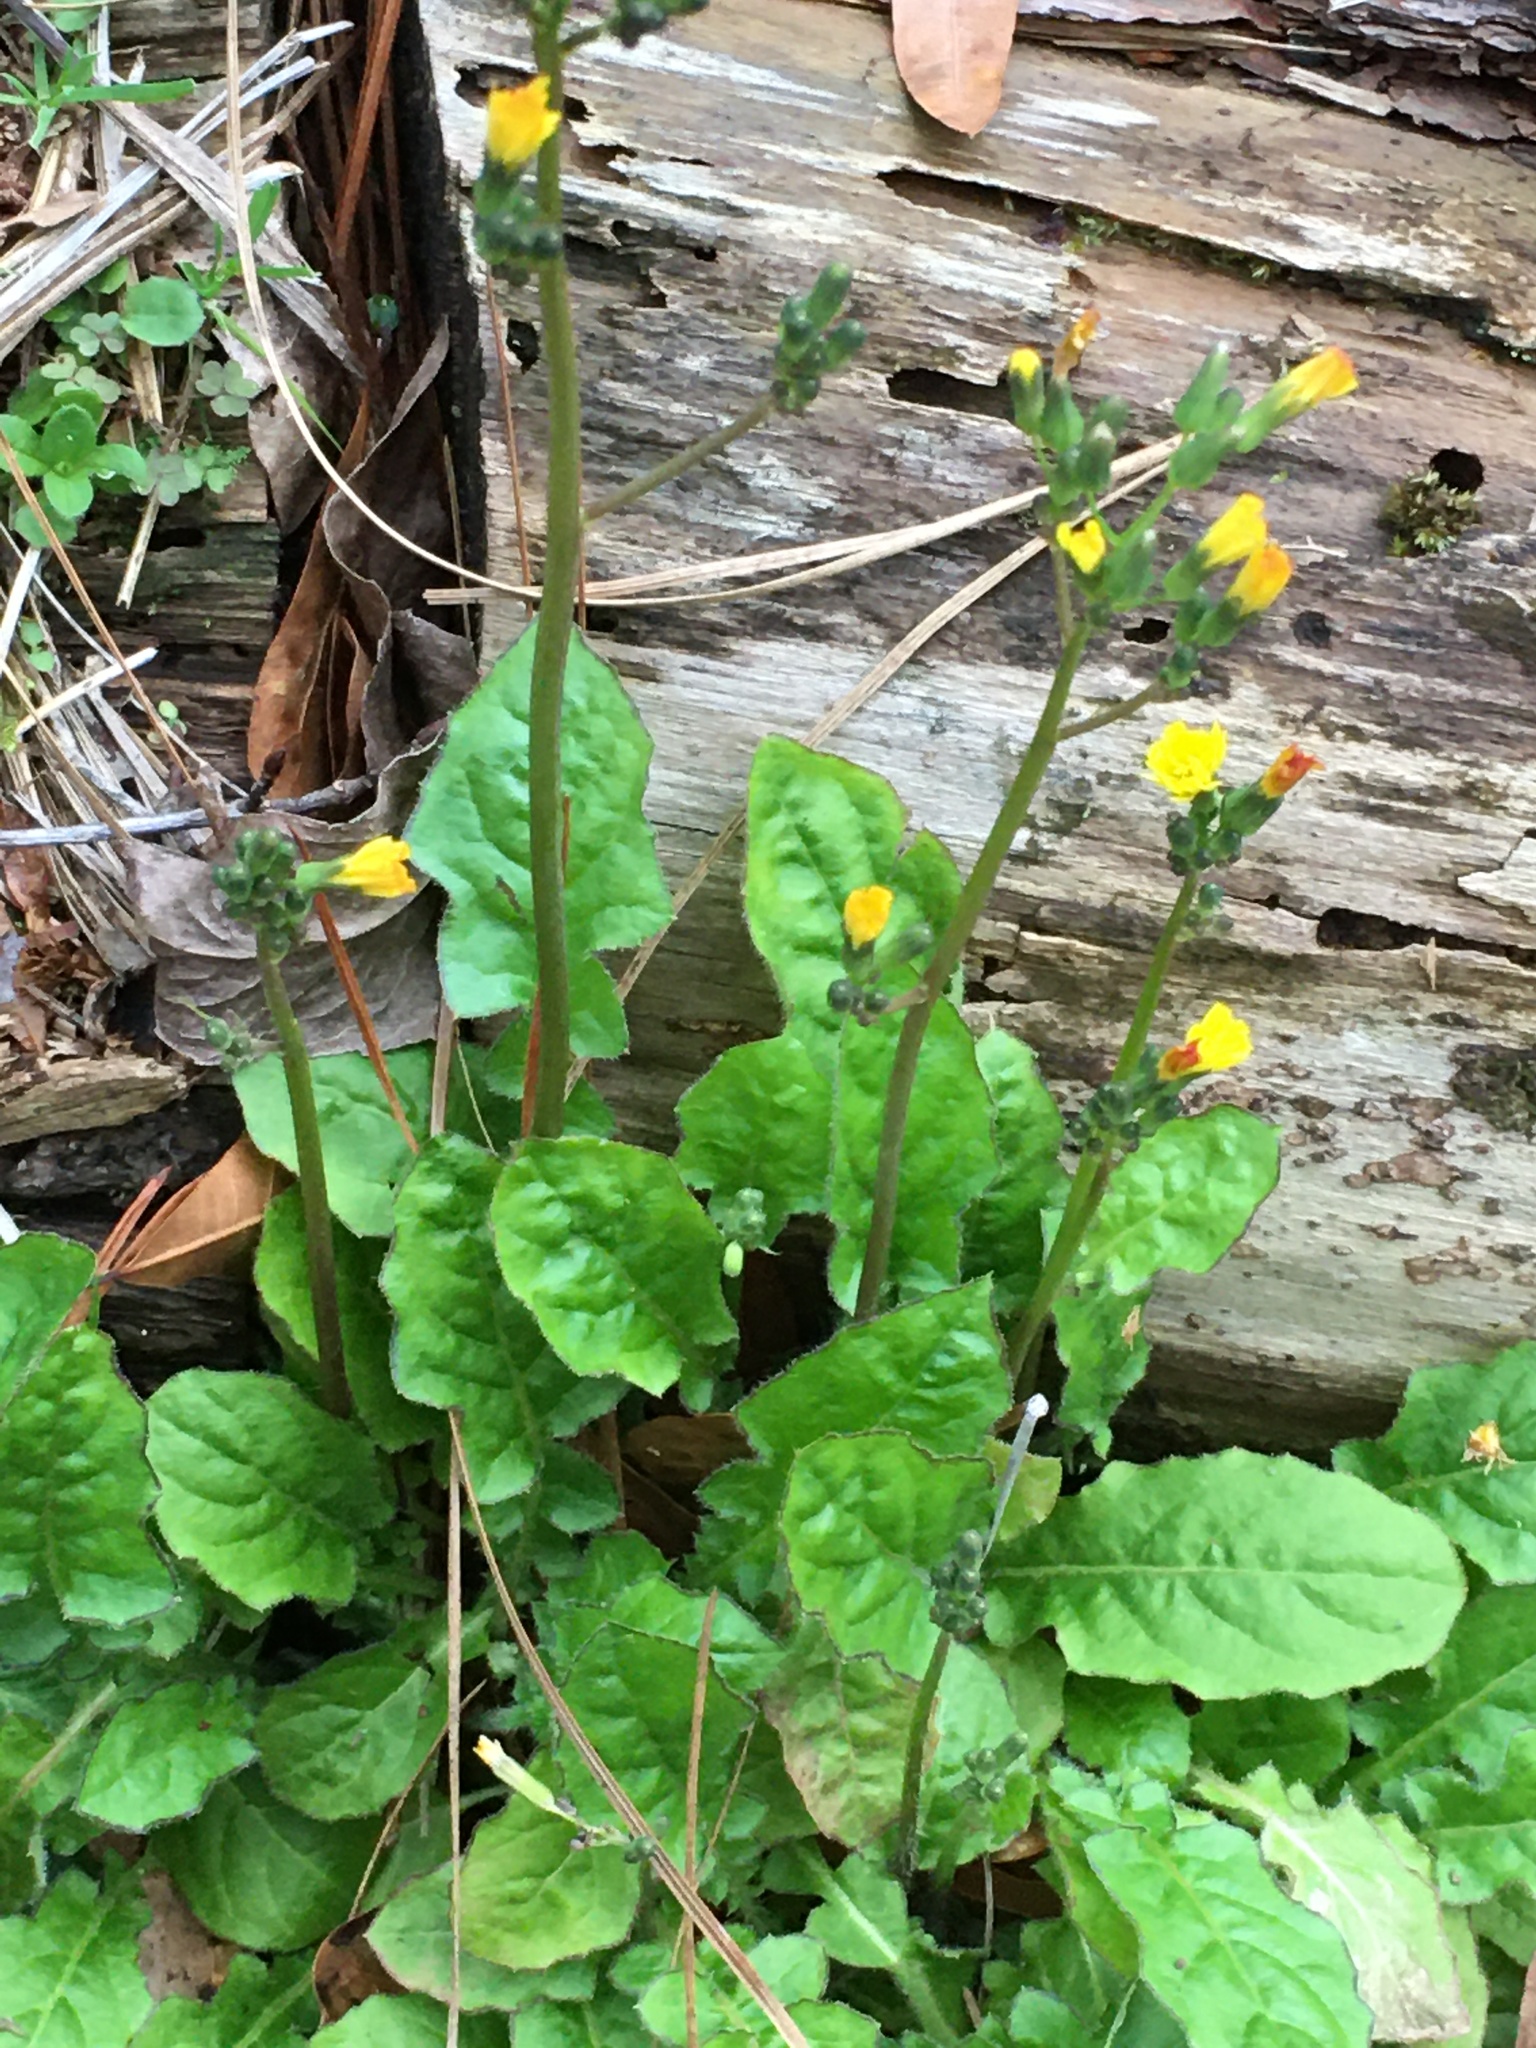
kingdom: Plantae
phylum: Tracheophyta
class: Magnoliopsida
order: Asterales
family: Asteraceae
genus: Youngia
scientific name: Youngia japonica
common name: Oriental false hawksbeard
